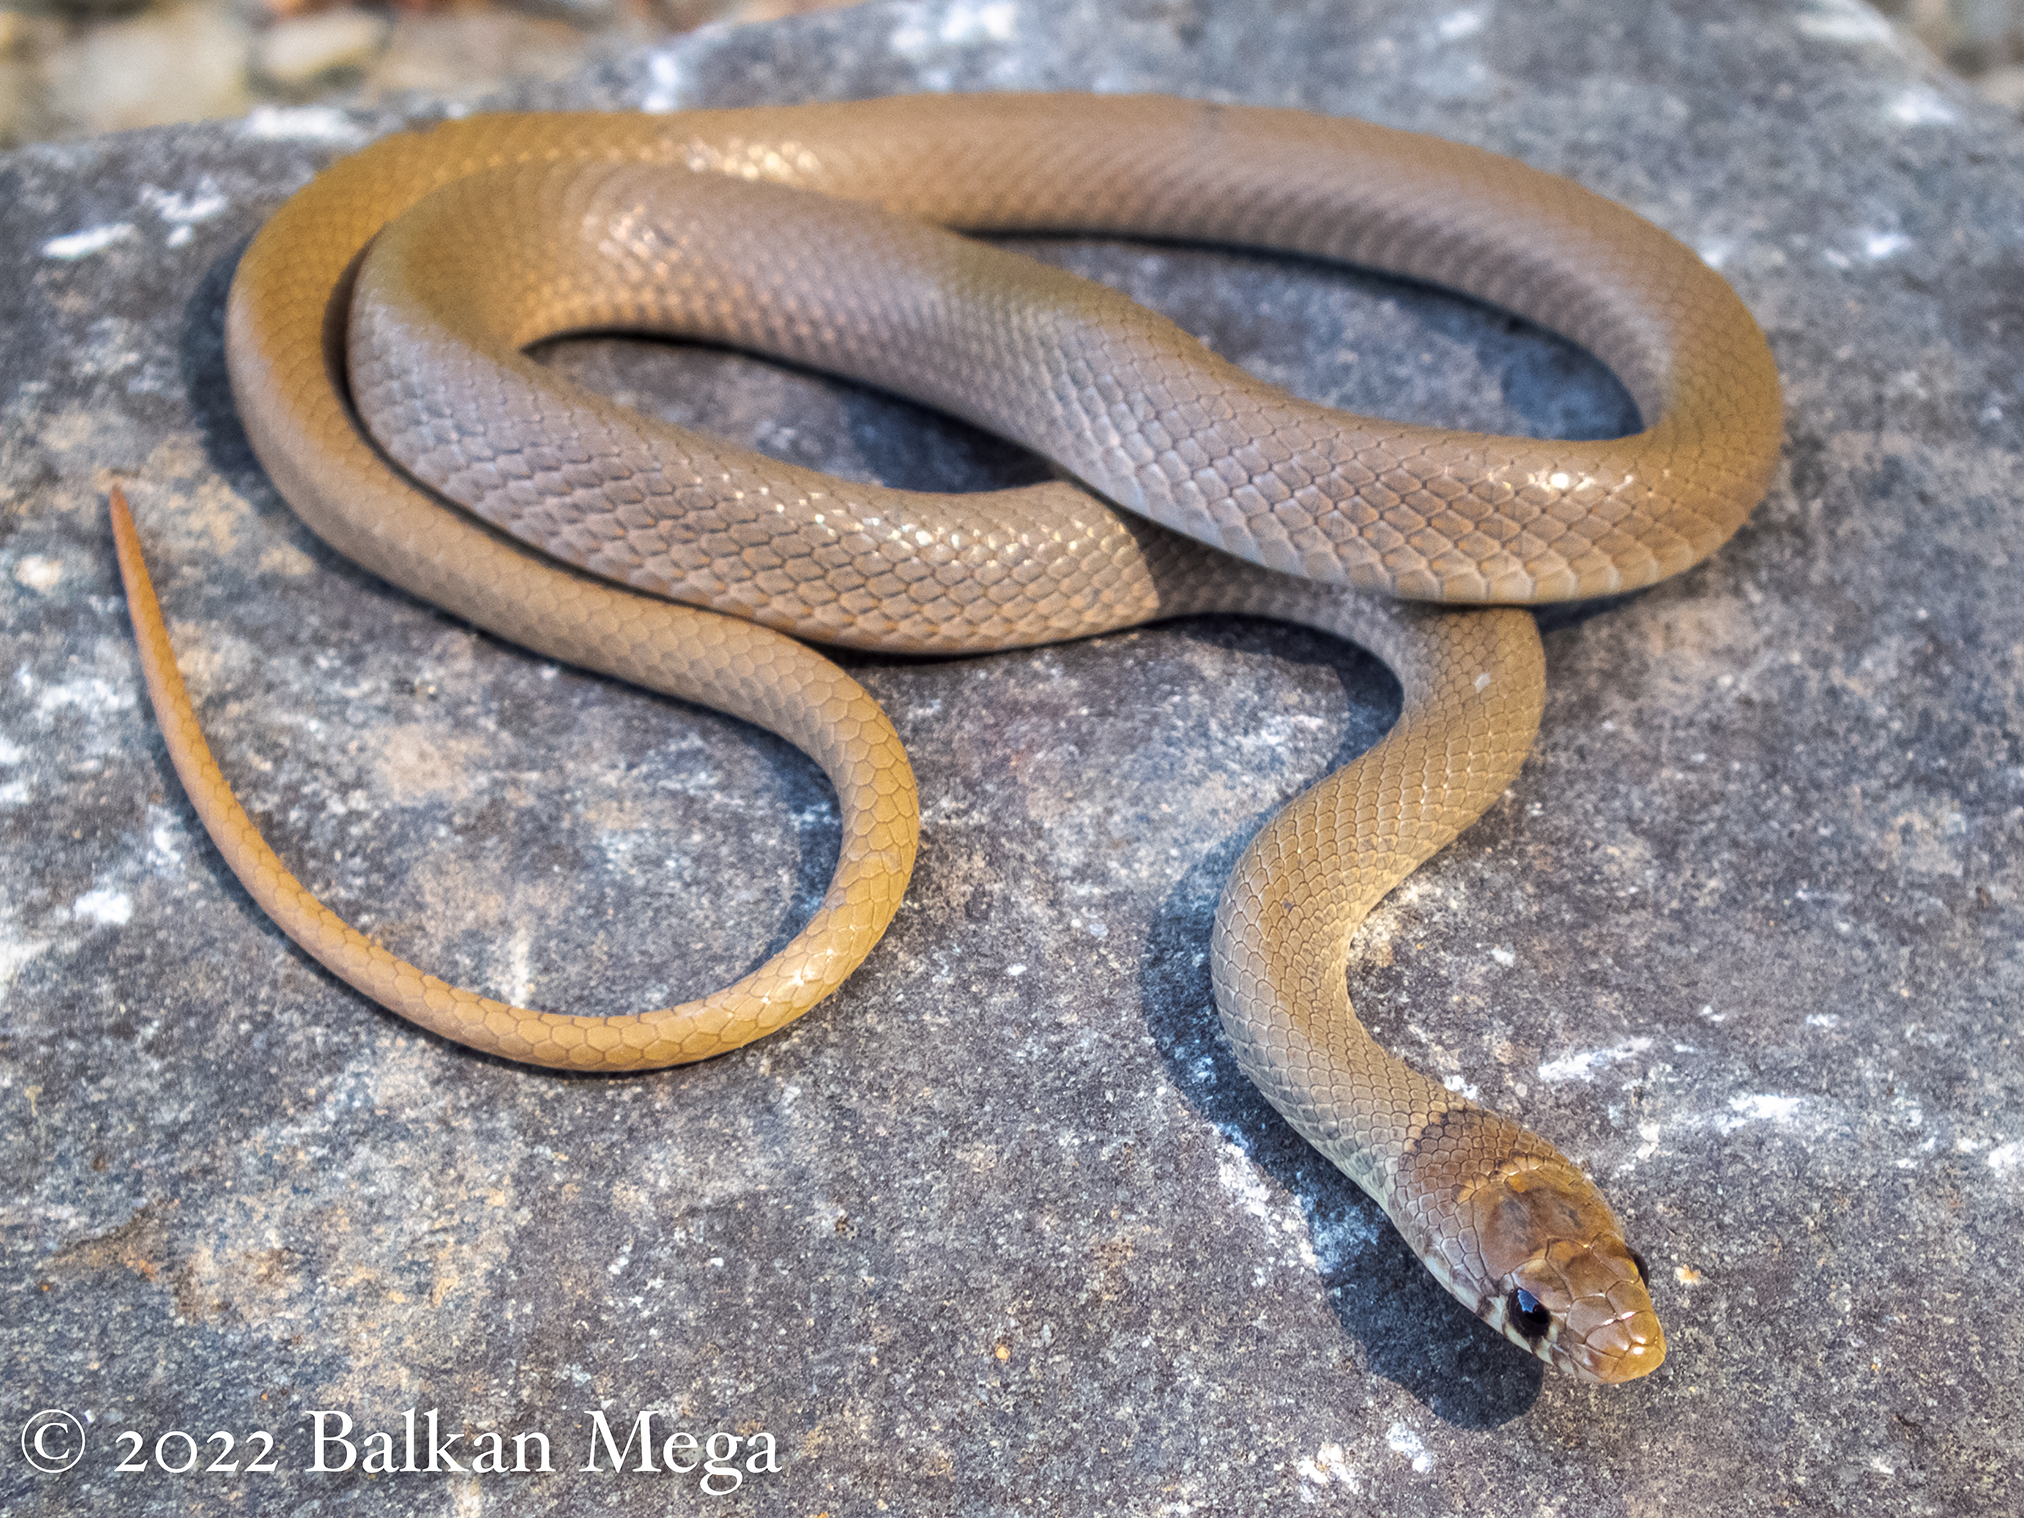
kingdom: Animalia
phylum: Chordata
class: Squamata
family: Colubridae
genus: Eirenis
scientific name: Eirenis modestus
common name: Ring-headed dwarf snake
